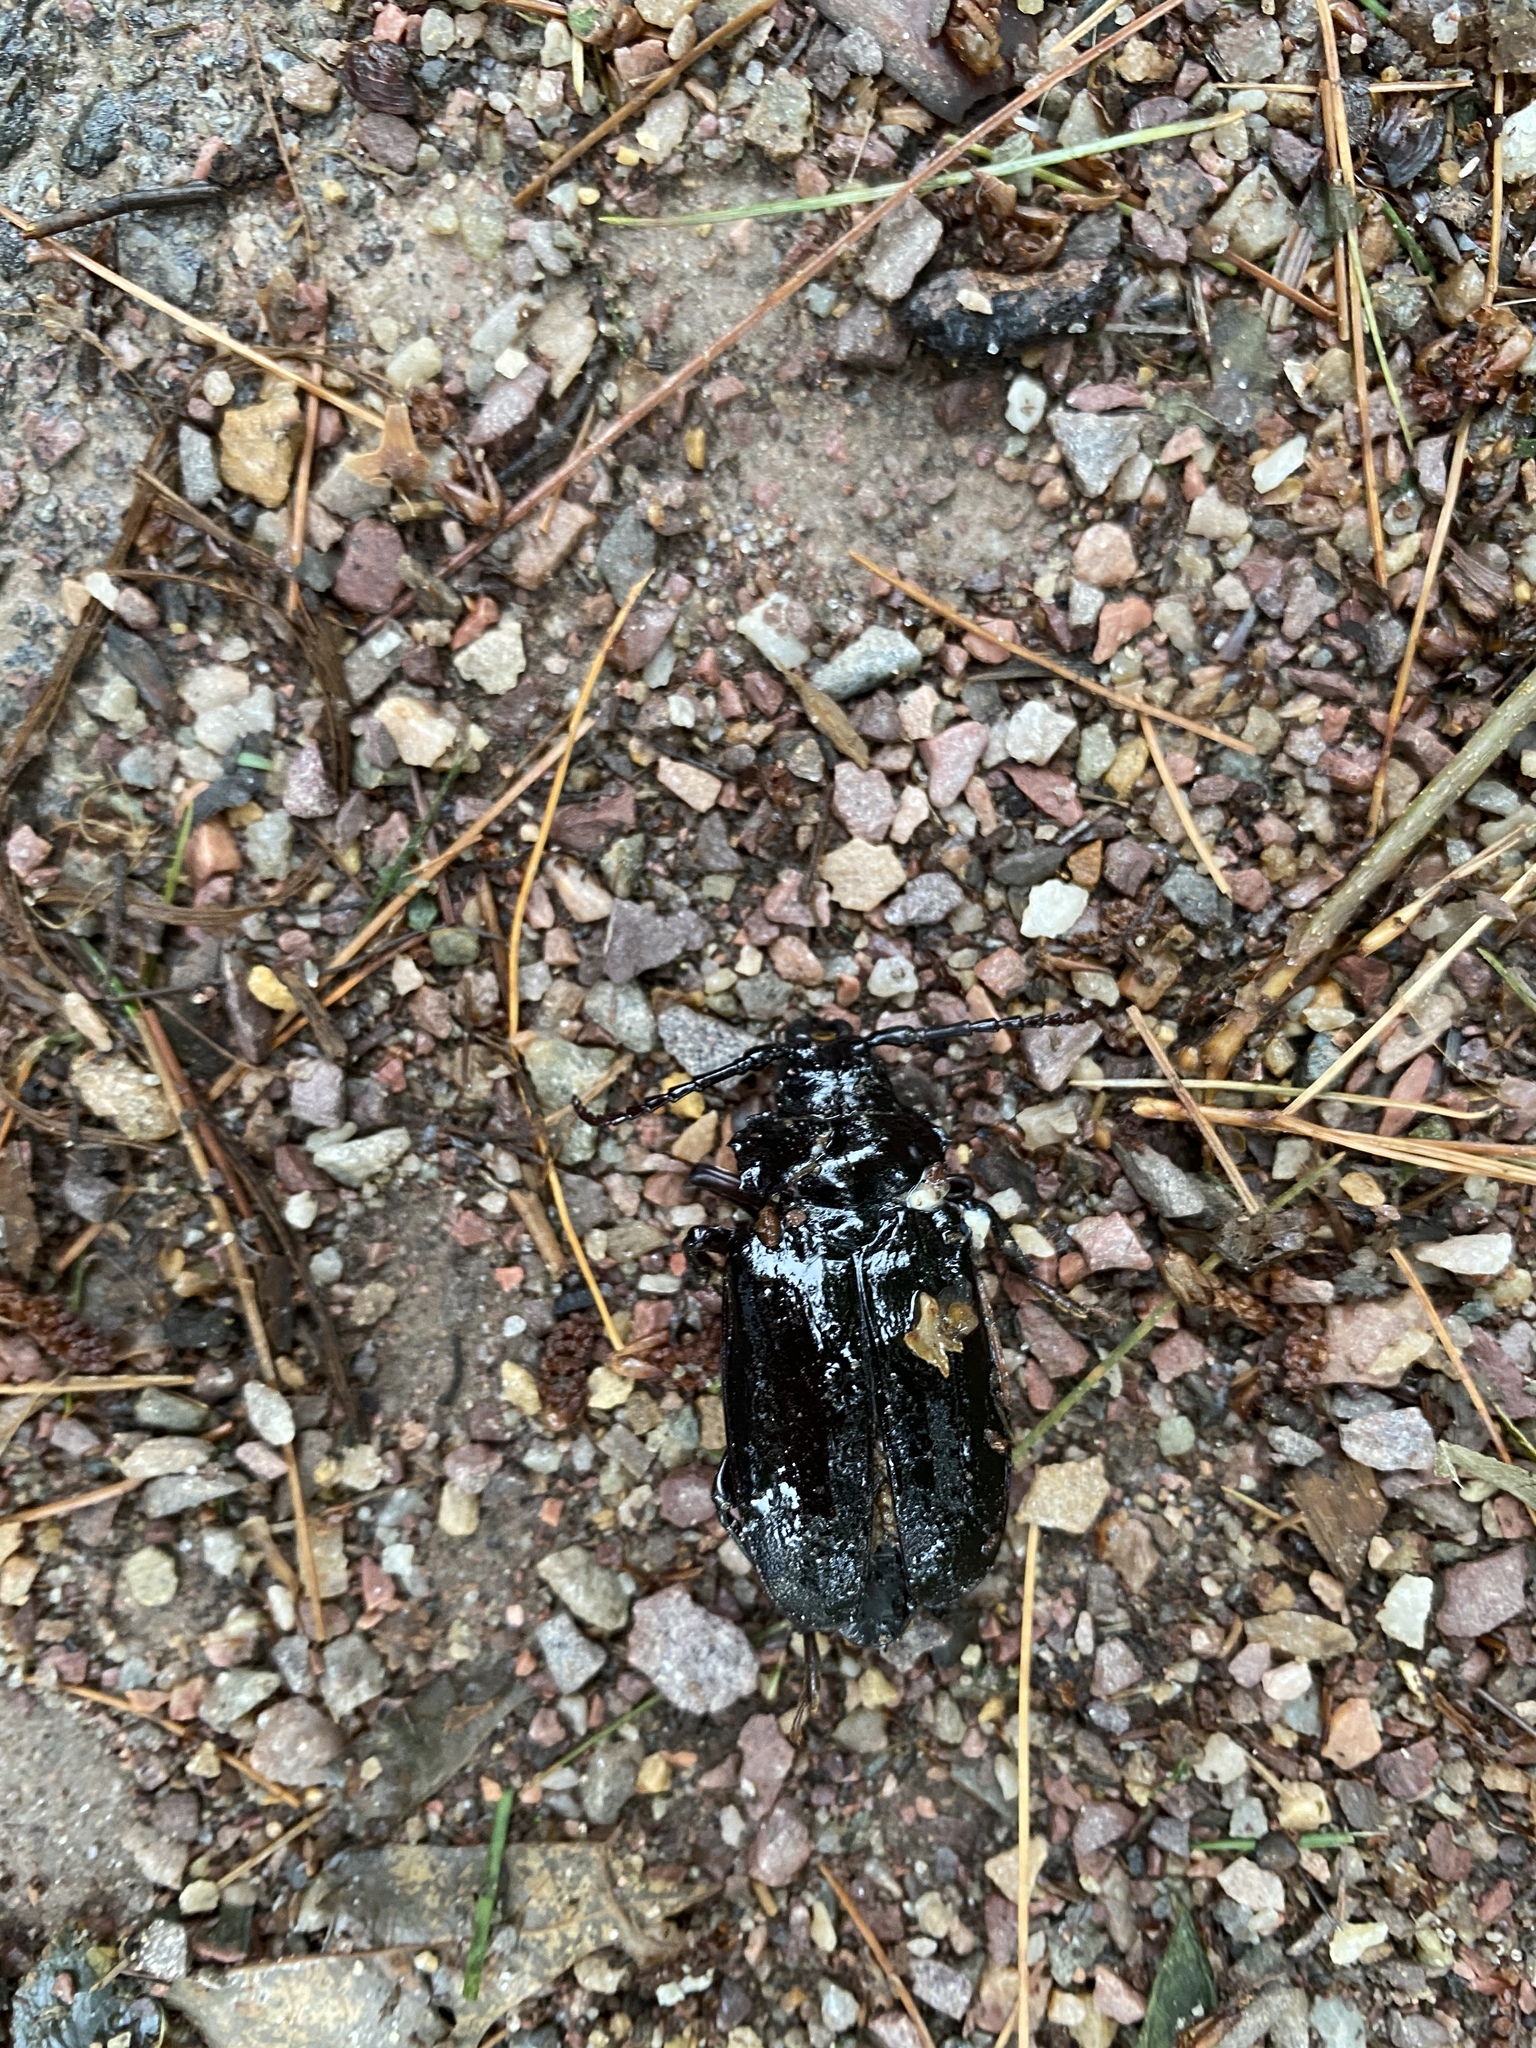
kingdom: Animalia
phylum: Arthropoda
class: Insecta
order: Coleoptera
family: Cerambycidae
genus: Prionus
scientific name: Prionus laticollis
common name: Broad necked prionus
